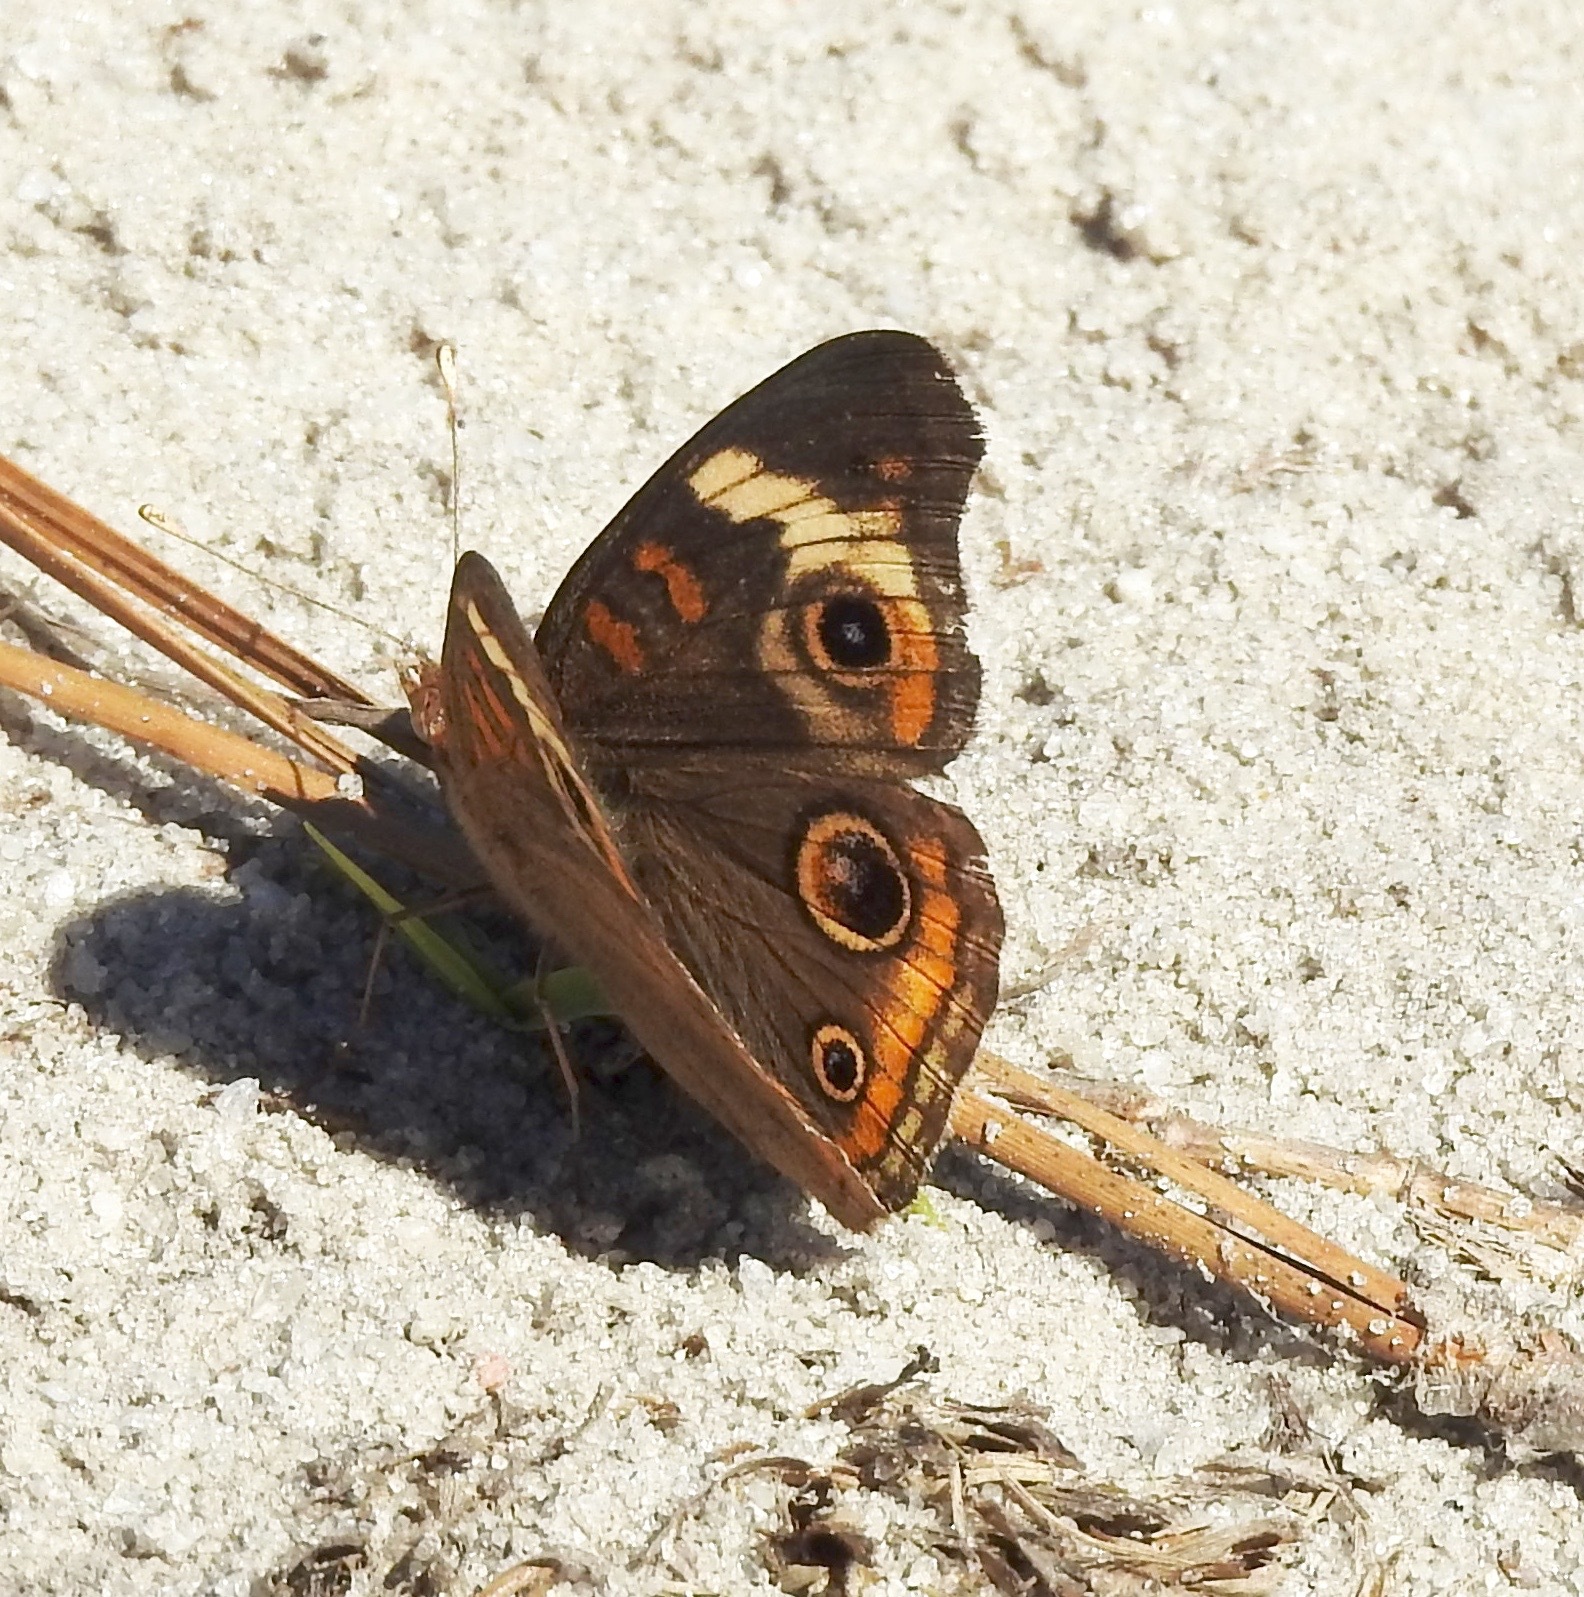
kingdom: Animalia
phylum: Arthropoda
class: Insecta
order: Lepidoptera
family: Nymphalidae
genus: Junonia
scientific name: Junonia coenia
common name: Common buckeye
